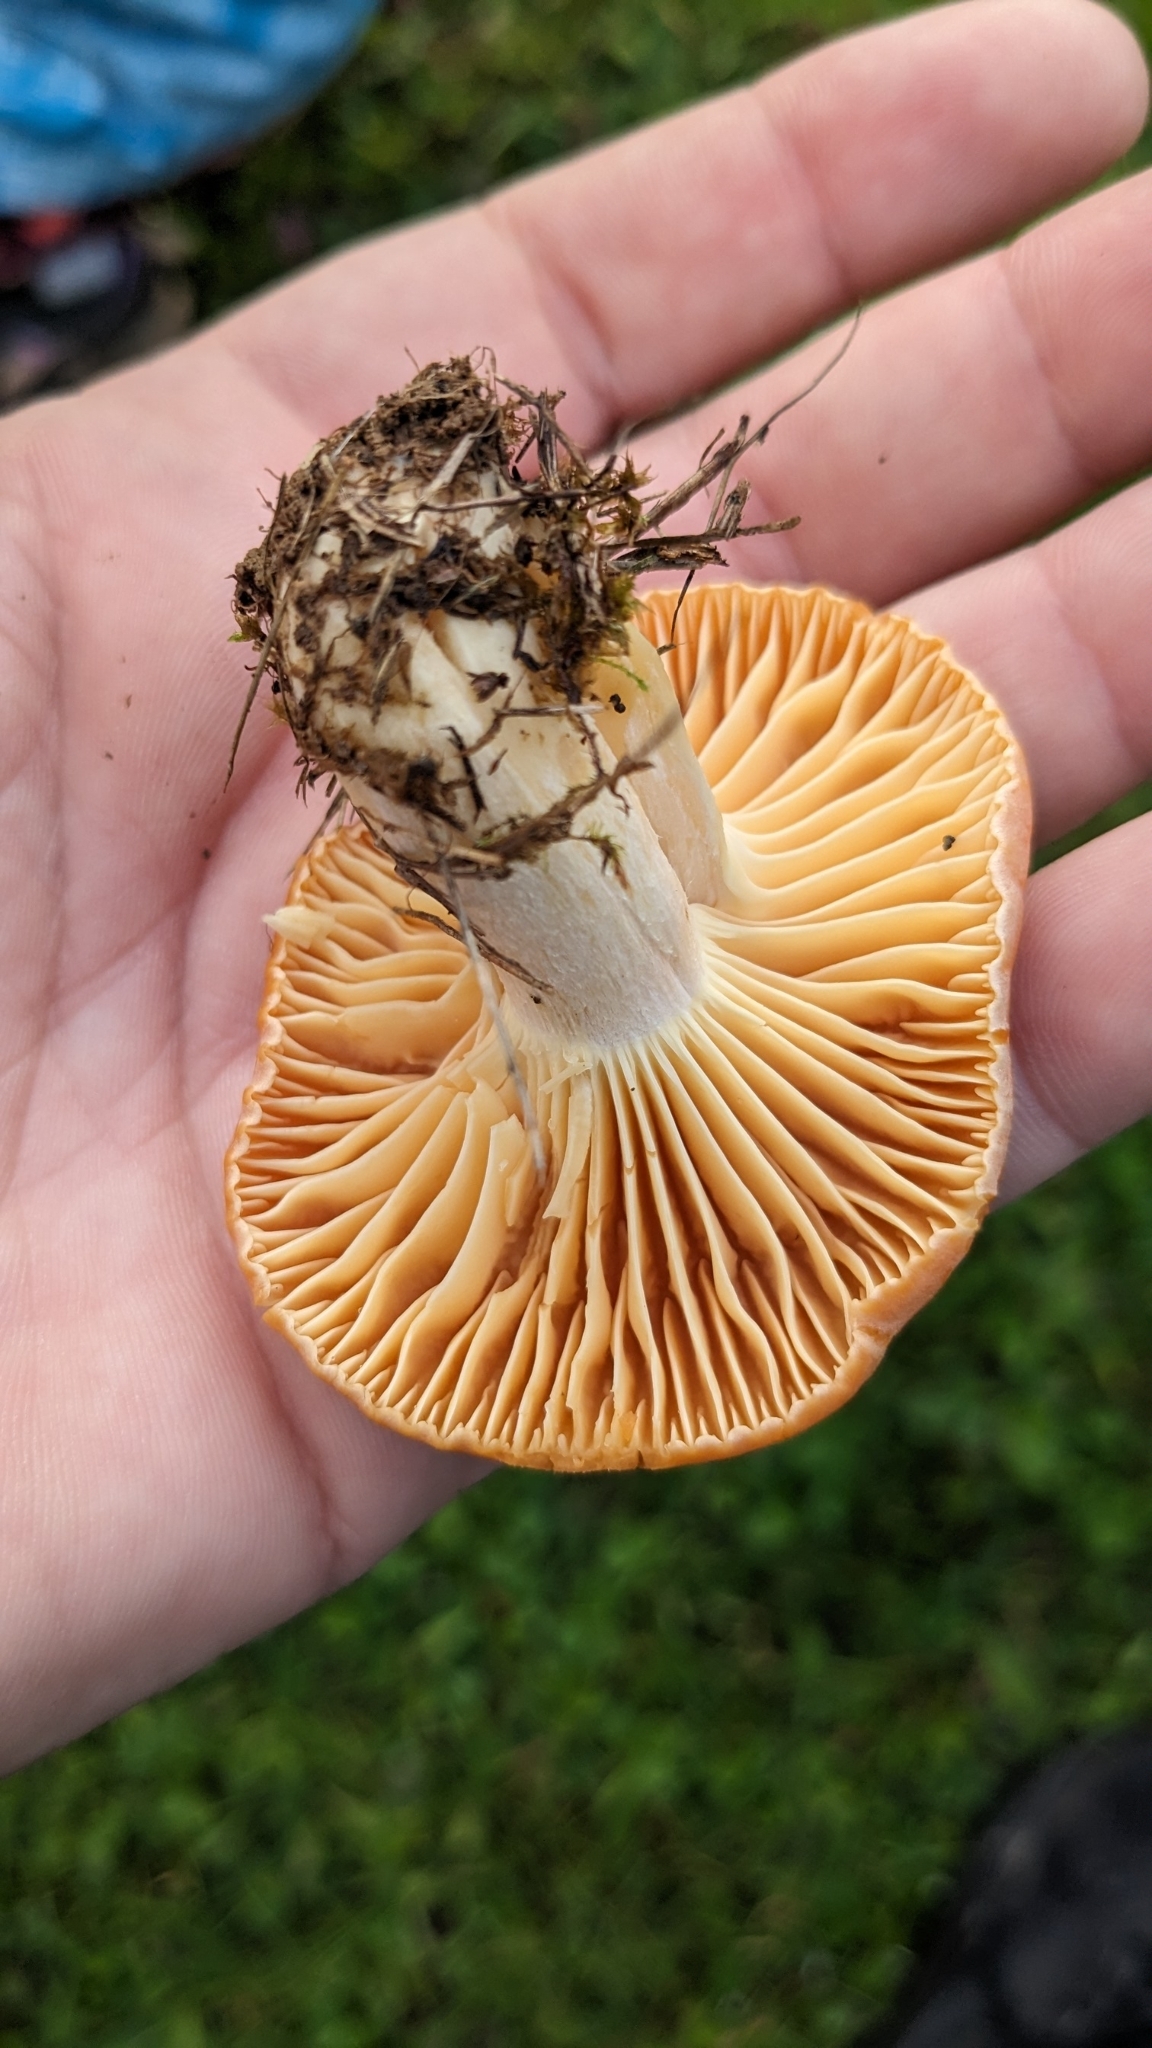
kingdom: Fungi
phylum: Basidiomycota
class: Agaricomycetes
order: Agaricales
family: Hygrophoraceae
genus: Cuphophyllus
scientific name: Cuphophyllus pratensis
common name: Meadow waxcap
